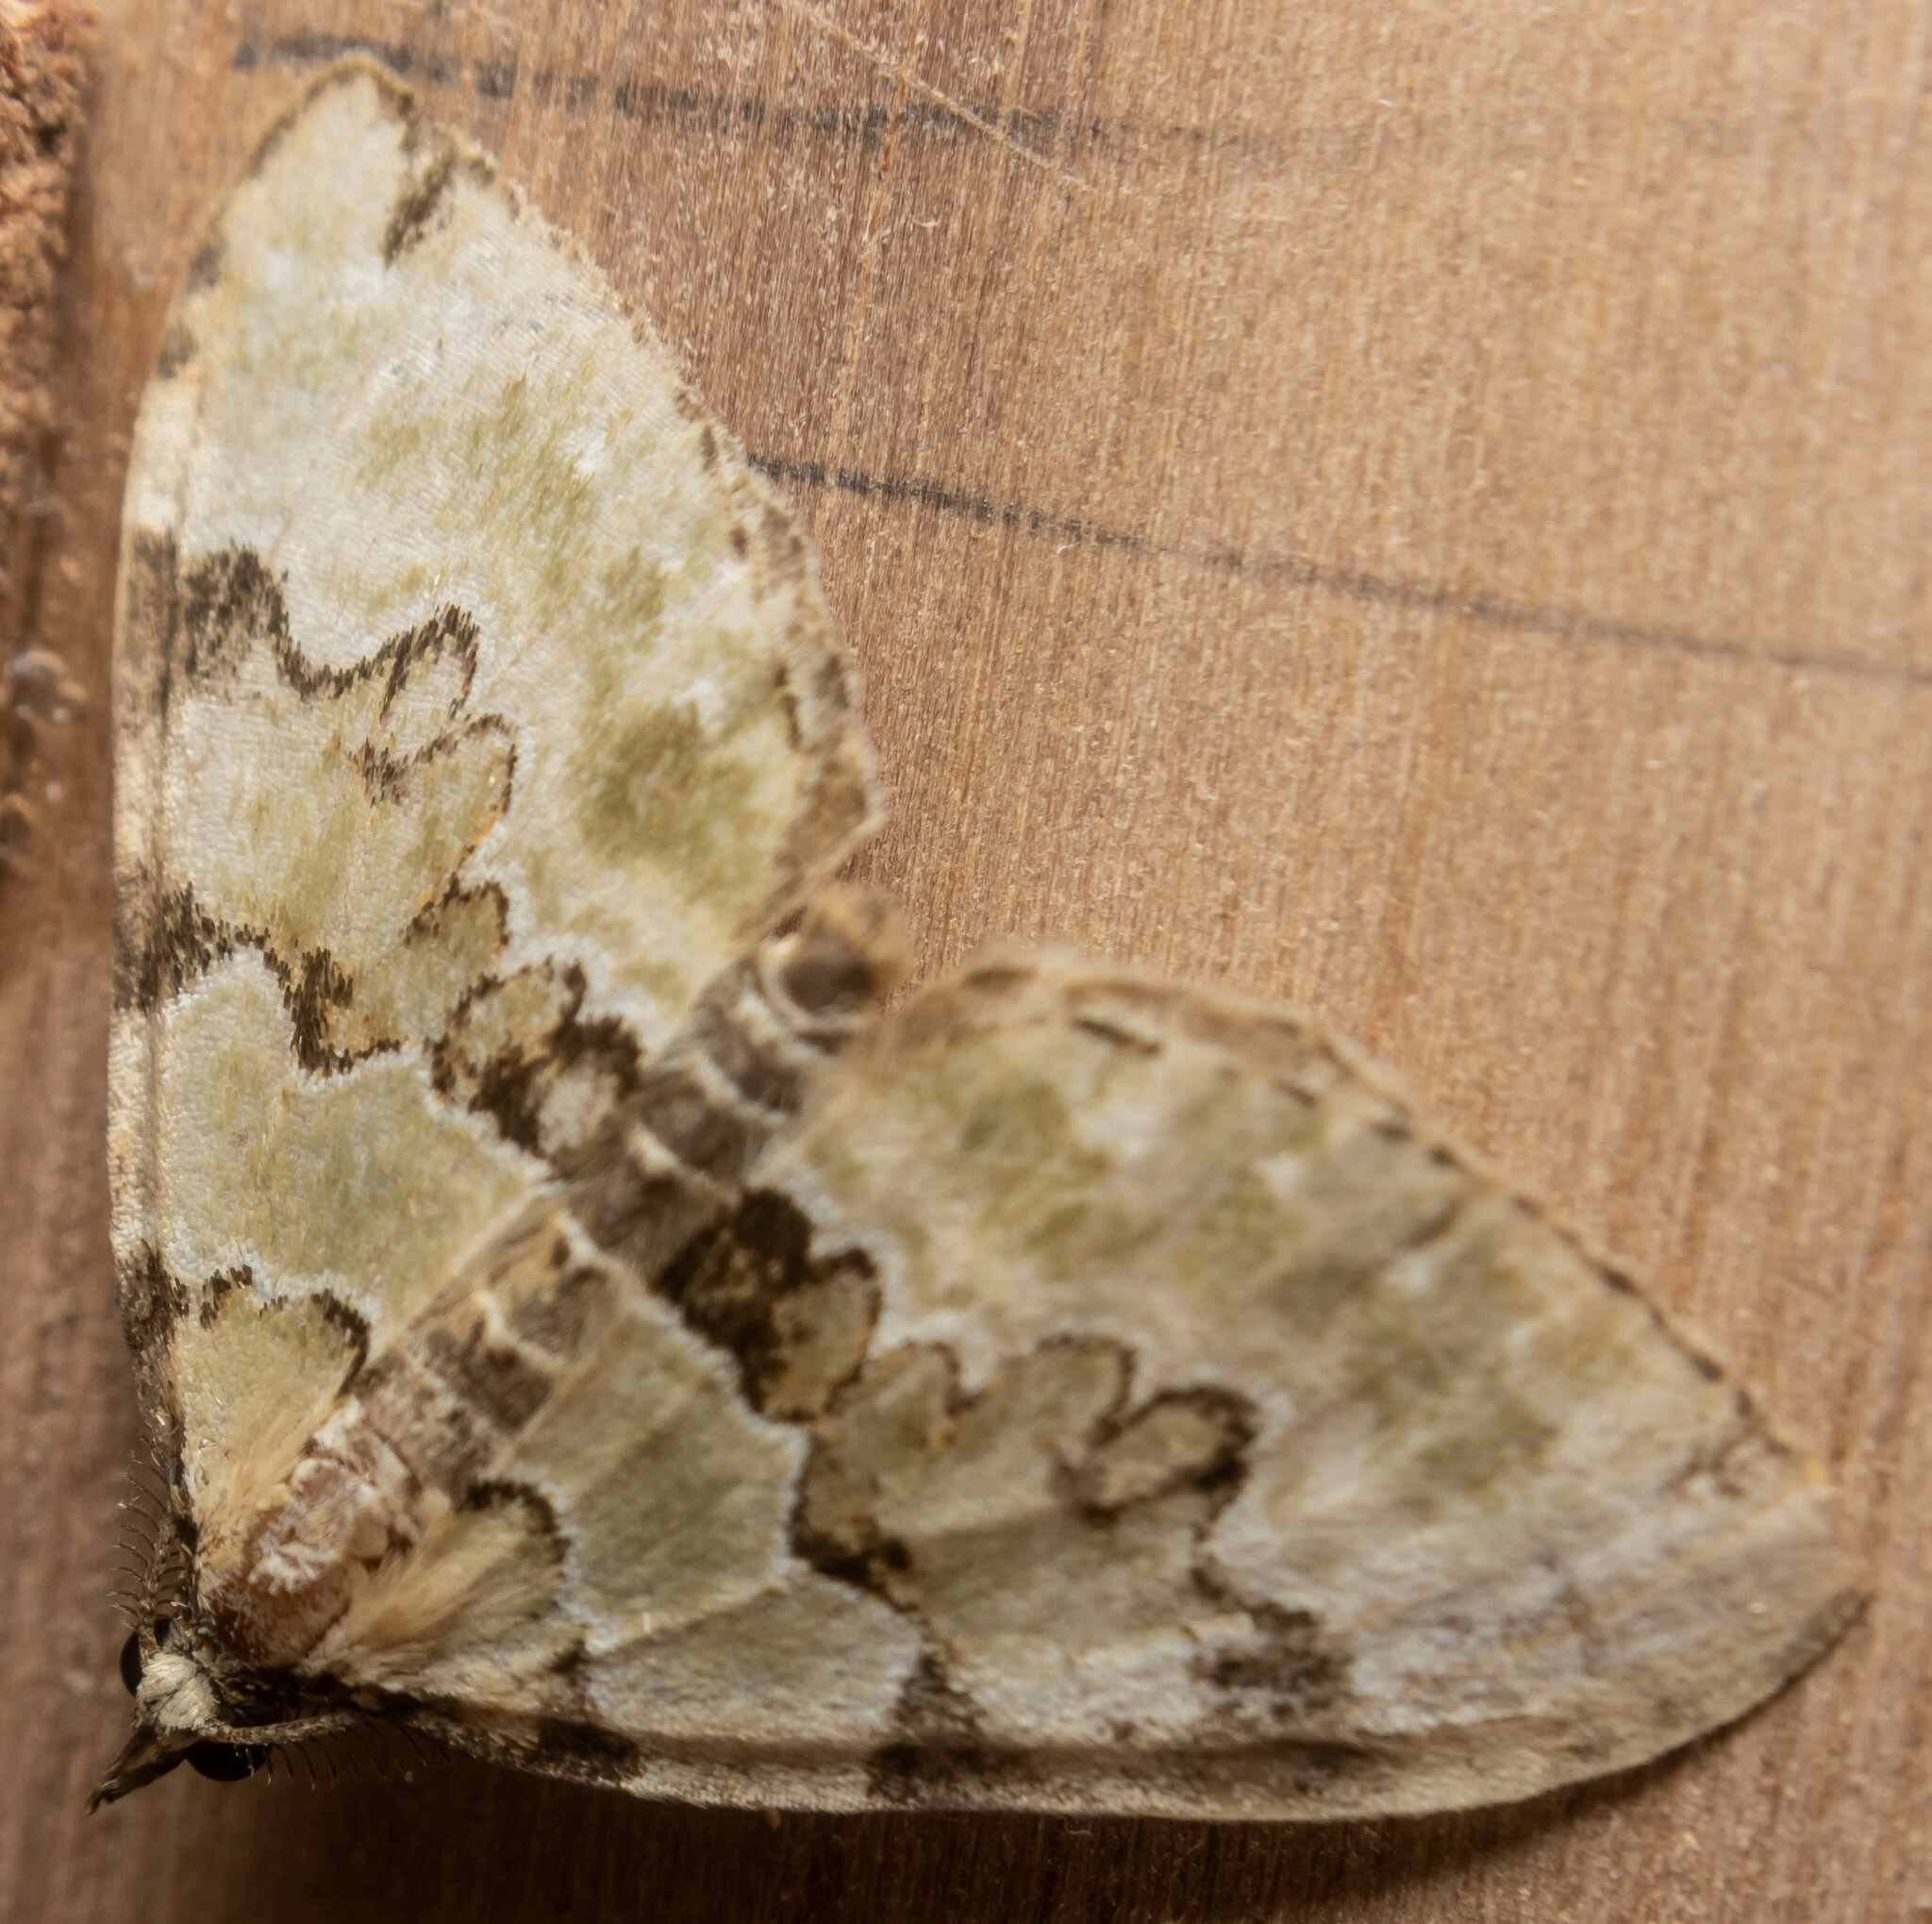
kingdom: Animalia
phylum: Arthropoda
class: Insecta
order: Lepidoptera
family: Geometridae
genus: Colostygia
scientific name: Colostygia pectinataria
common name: Green carpet
